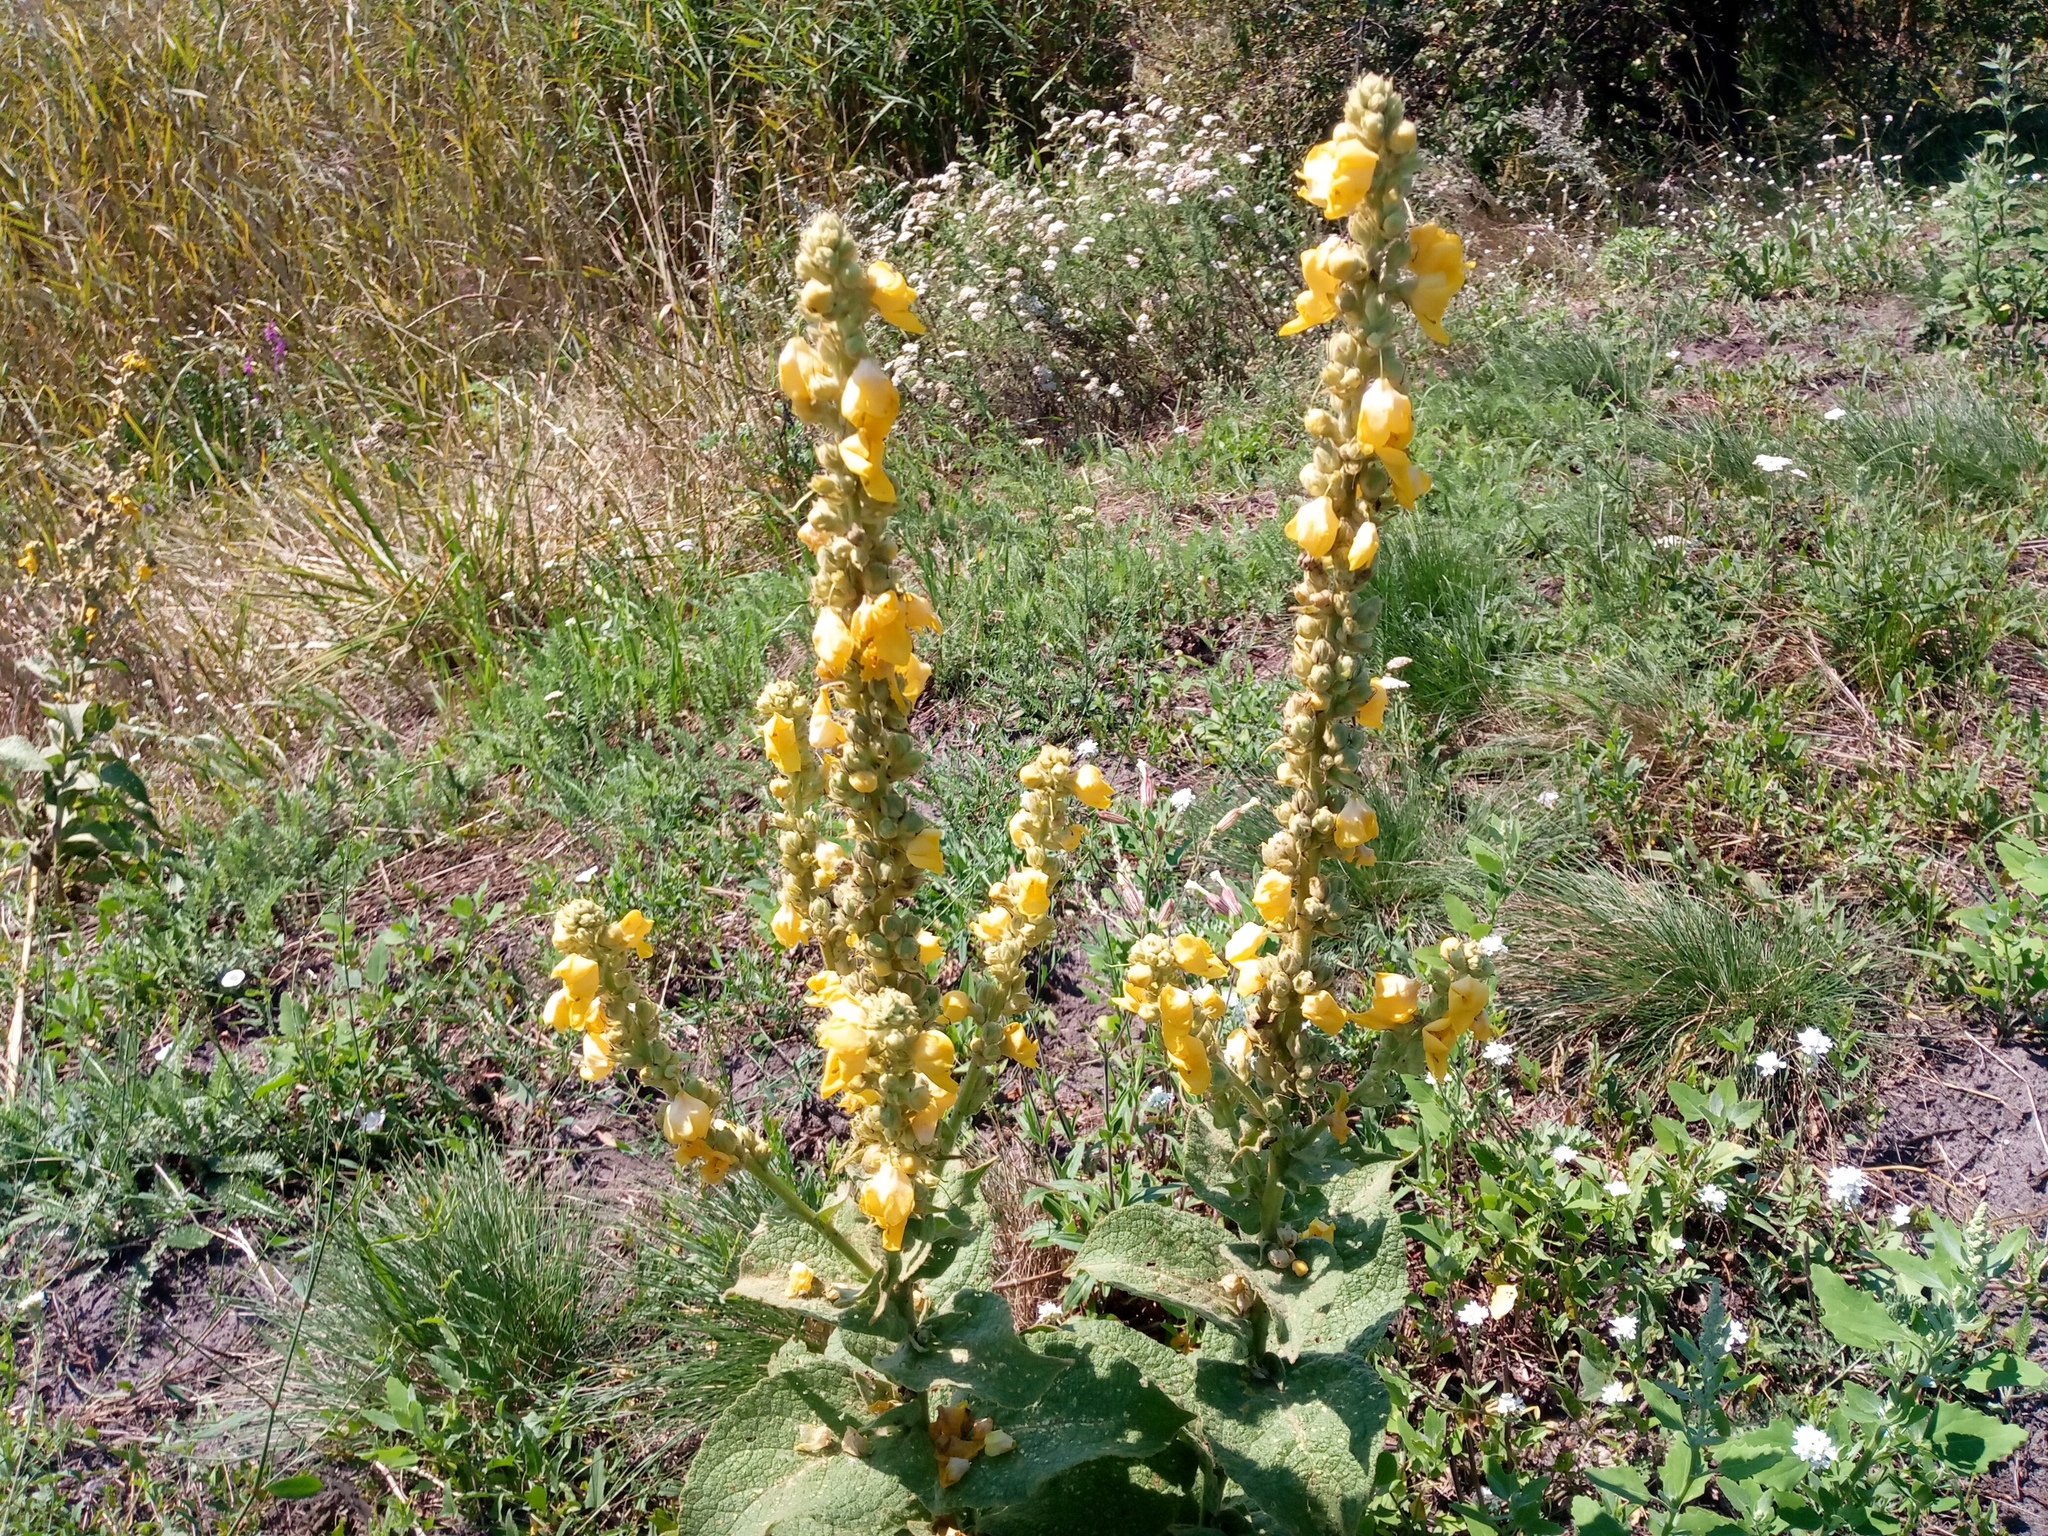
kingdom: Plantae
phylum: Tracheophyta
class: Magnoliopsida
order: Lamiales
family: Scrophulariaceae
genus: Verbascum
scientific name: Verbascum phlomoides
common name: Orange mullein
